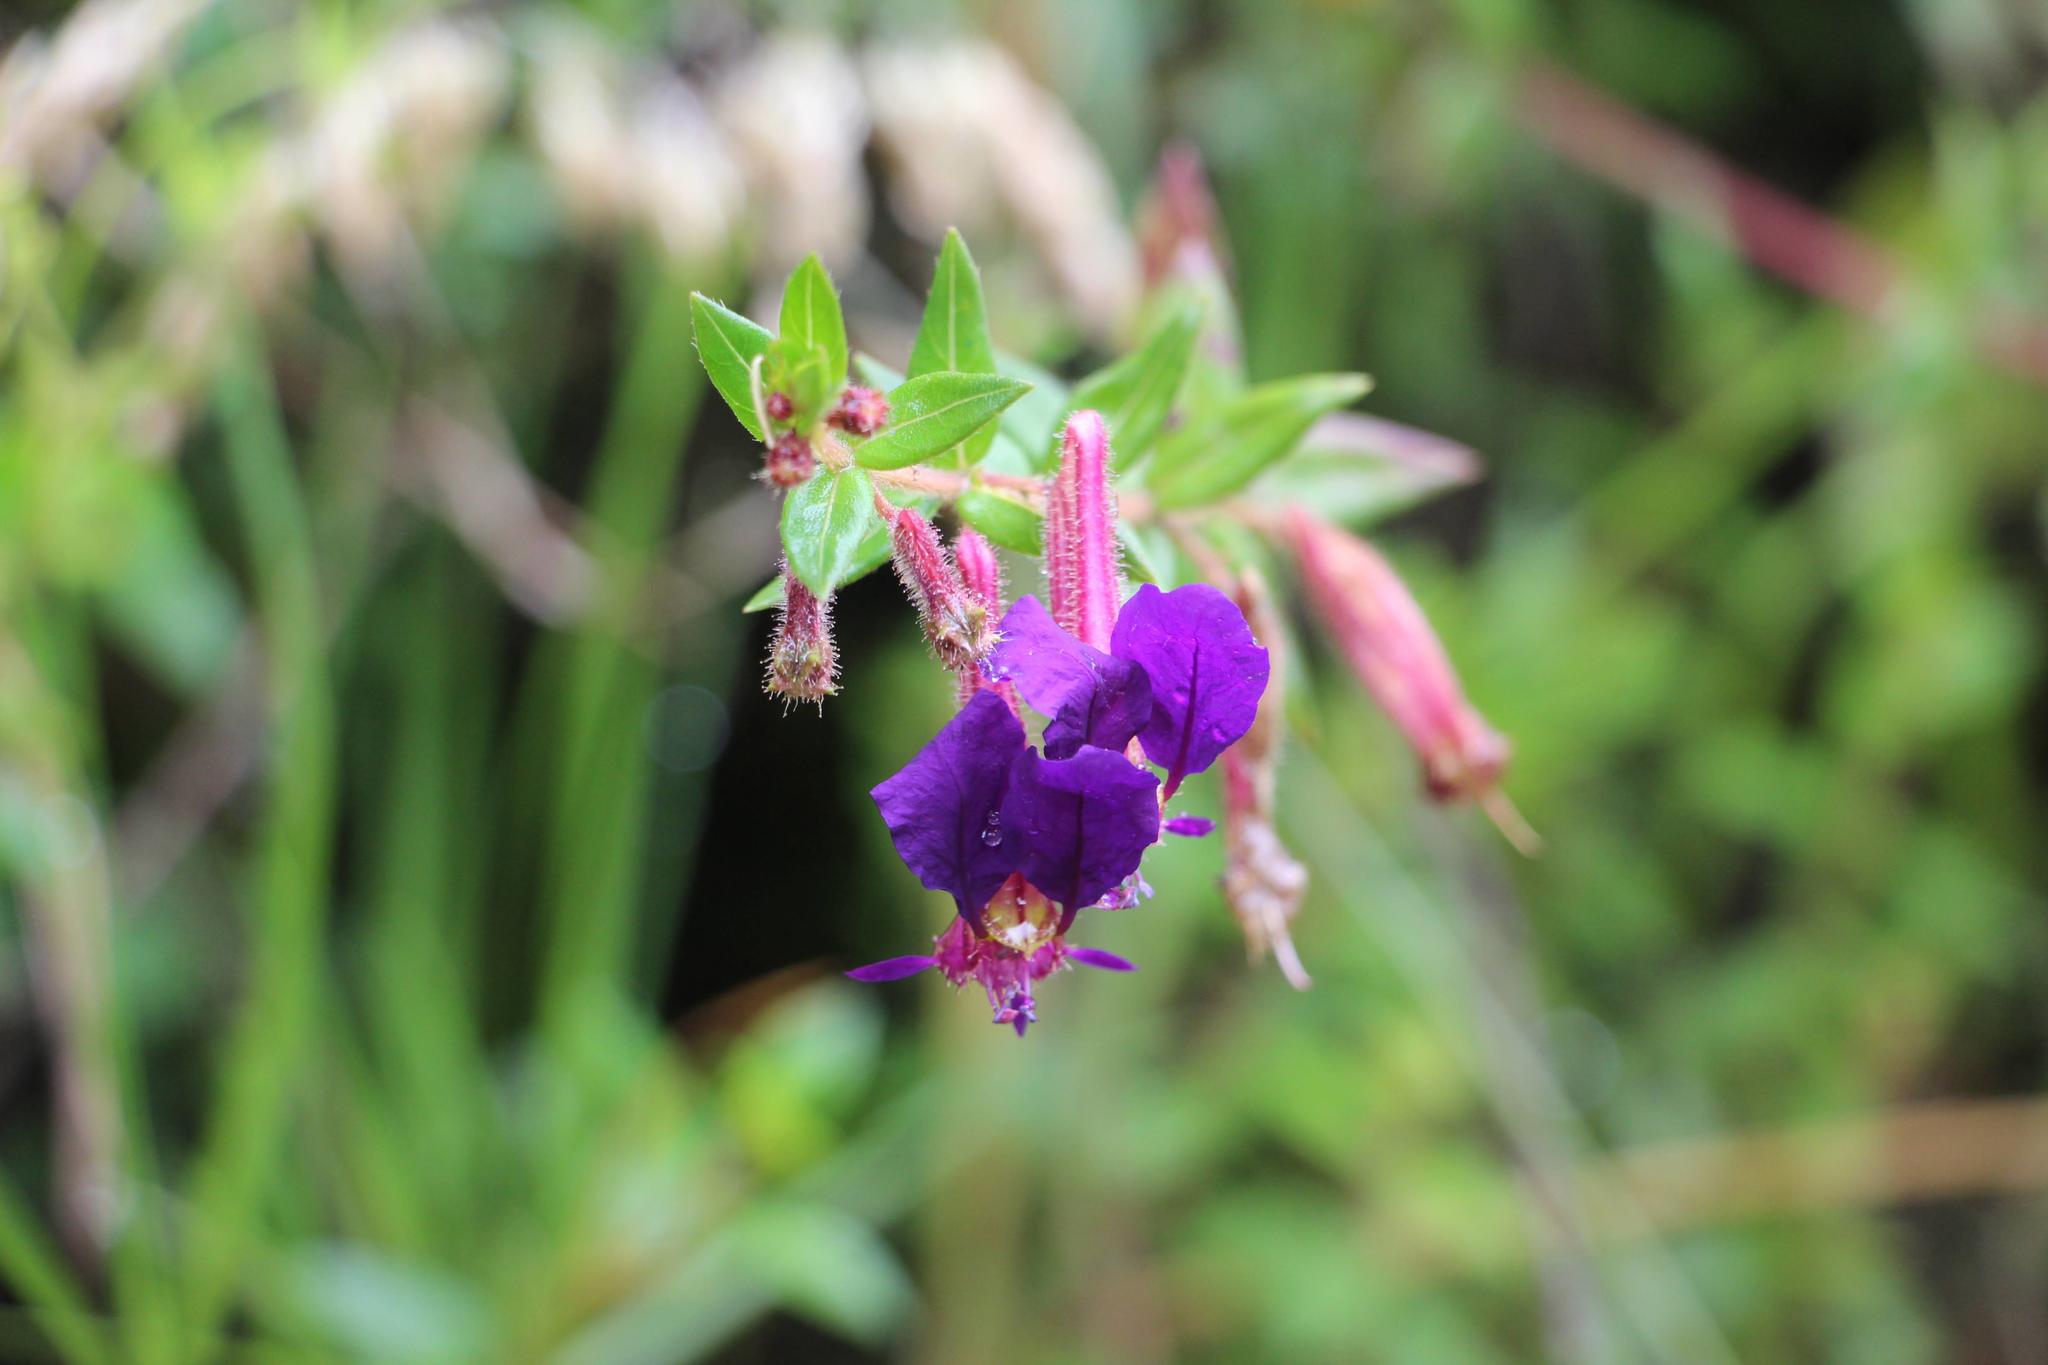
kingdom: Plantae
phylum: Tracheophyta
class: Magnoliopsida
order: Myrtales
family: Lythraceae
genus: Cuphea
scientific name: Cuphea dipetala
